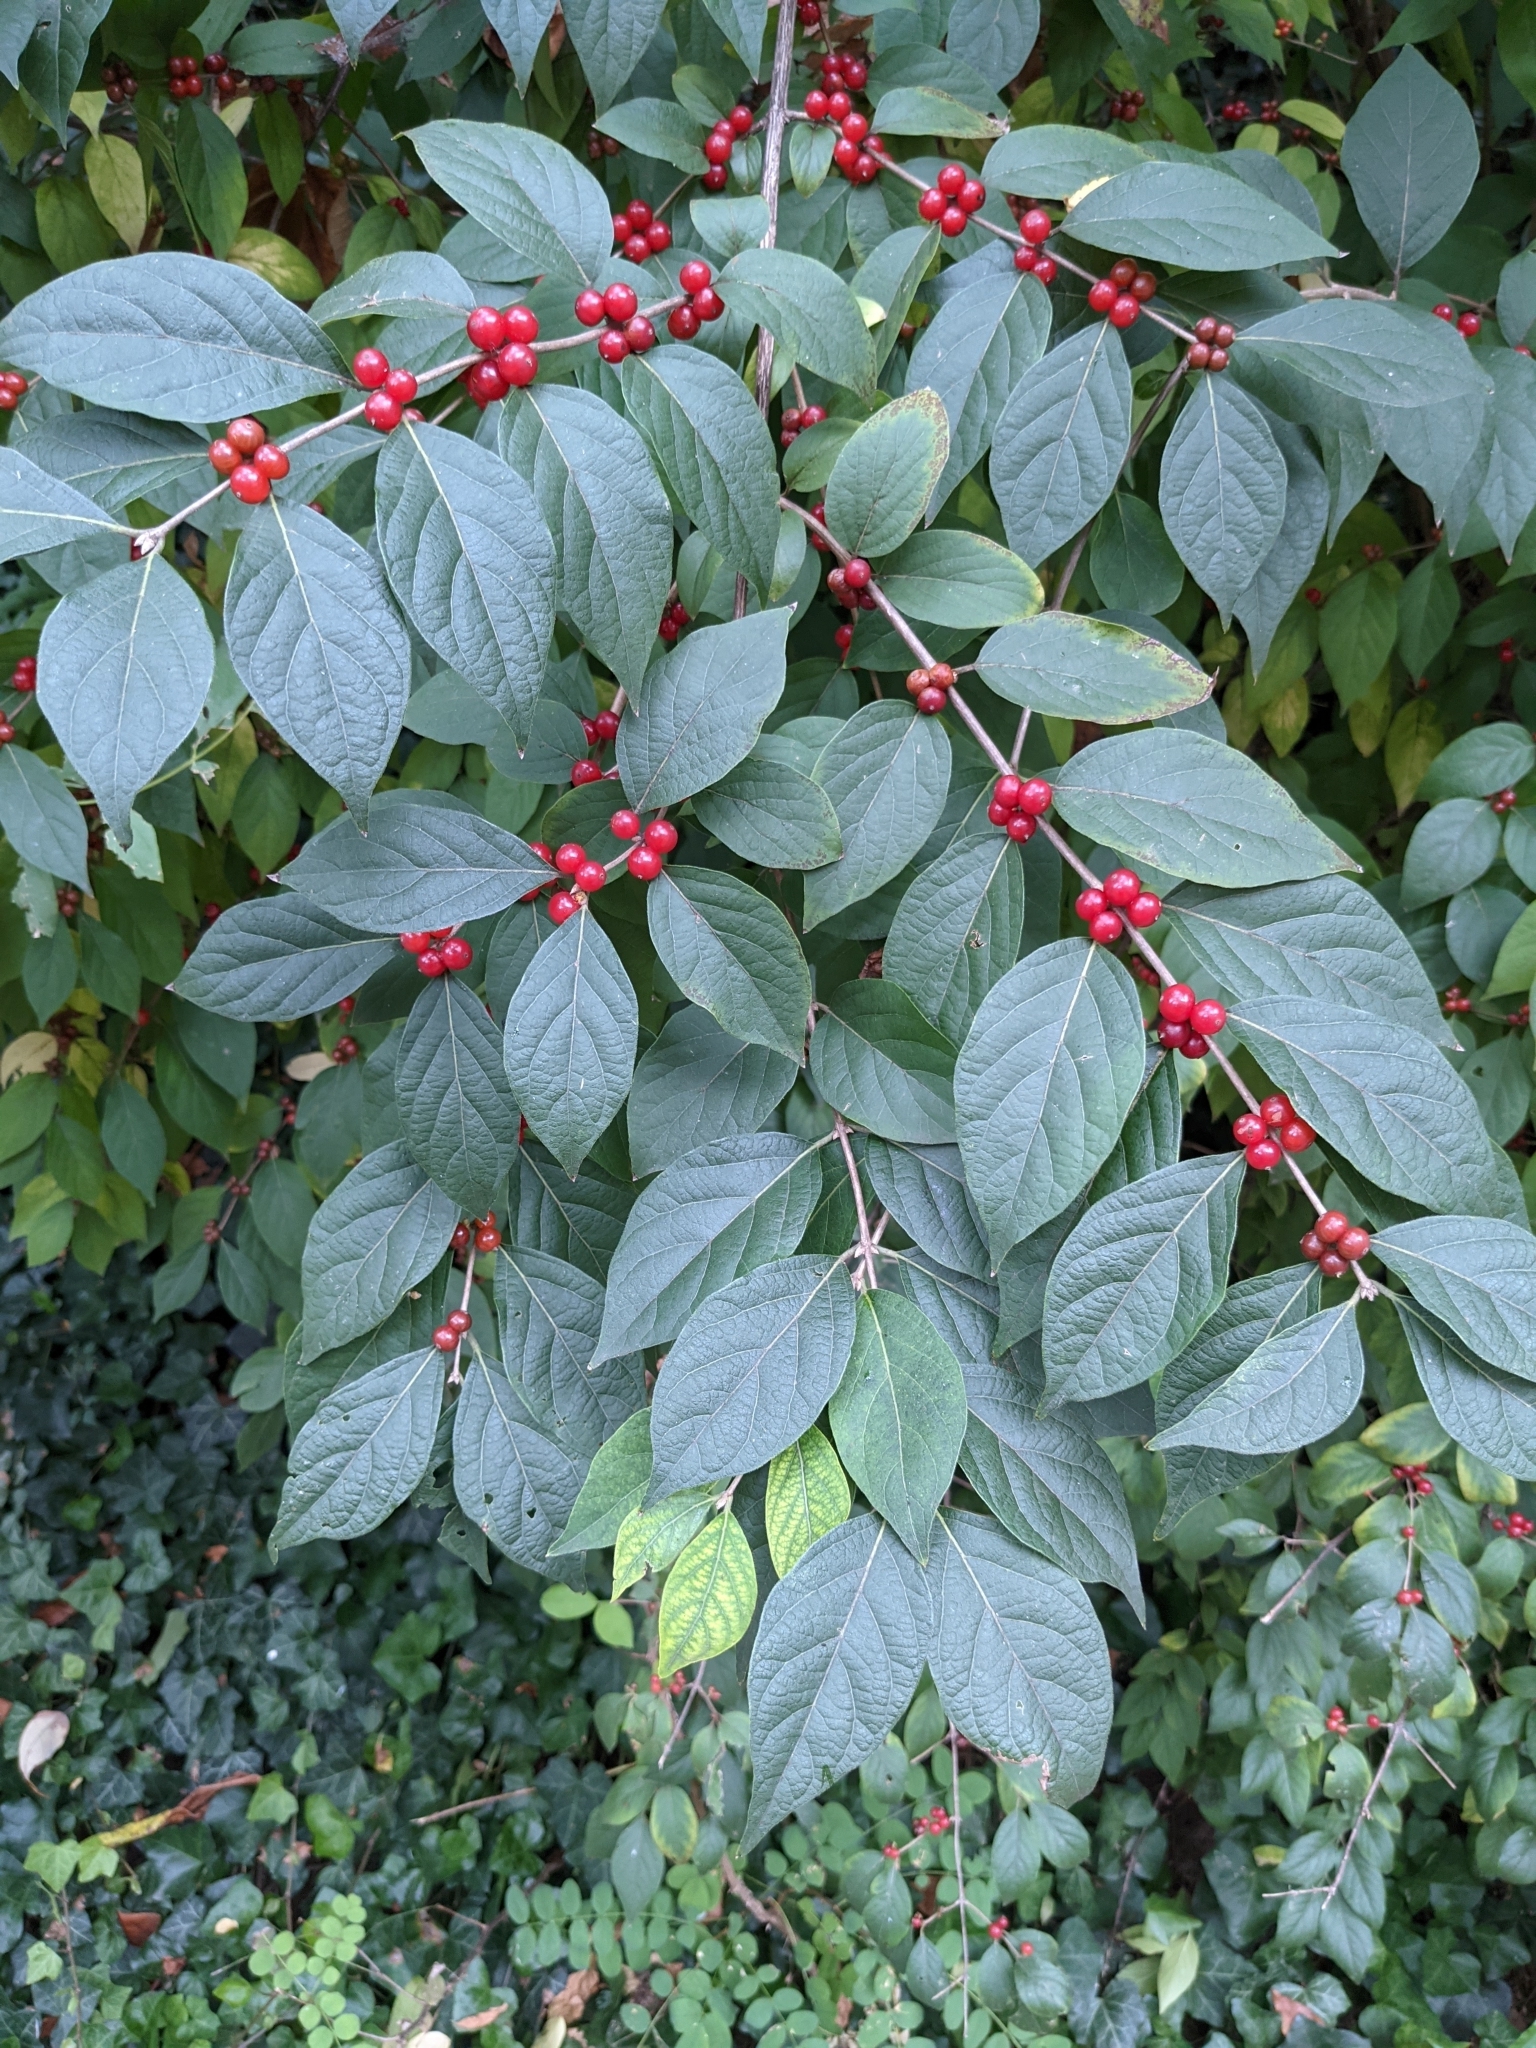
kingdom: Plantae
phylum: Tracheophyta
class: Magnoliopsida
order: Dipsacales
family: Caprifoliaceae
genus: Lonicera
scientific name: Lonicera maackii
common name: Amur honeysuckle
